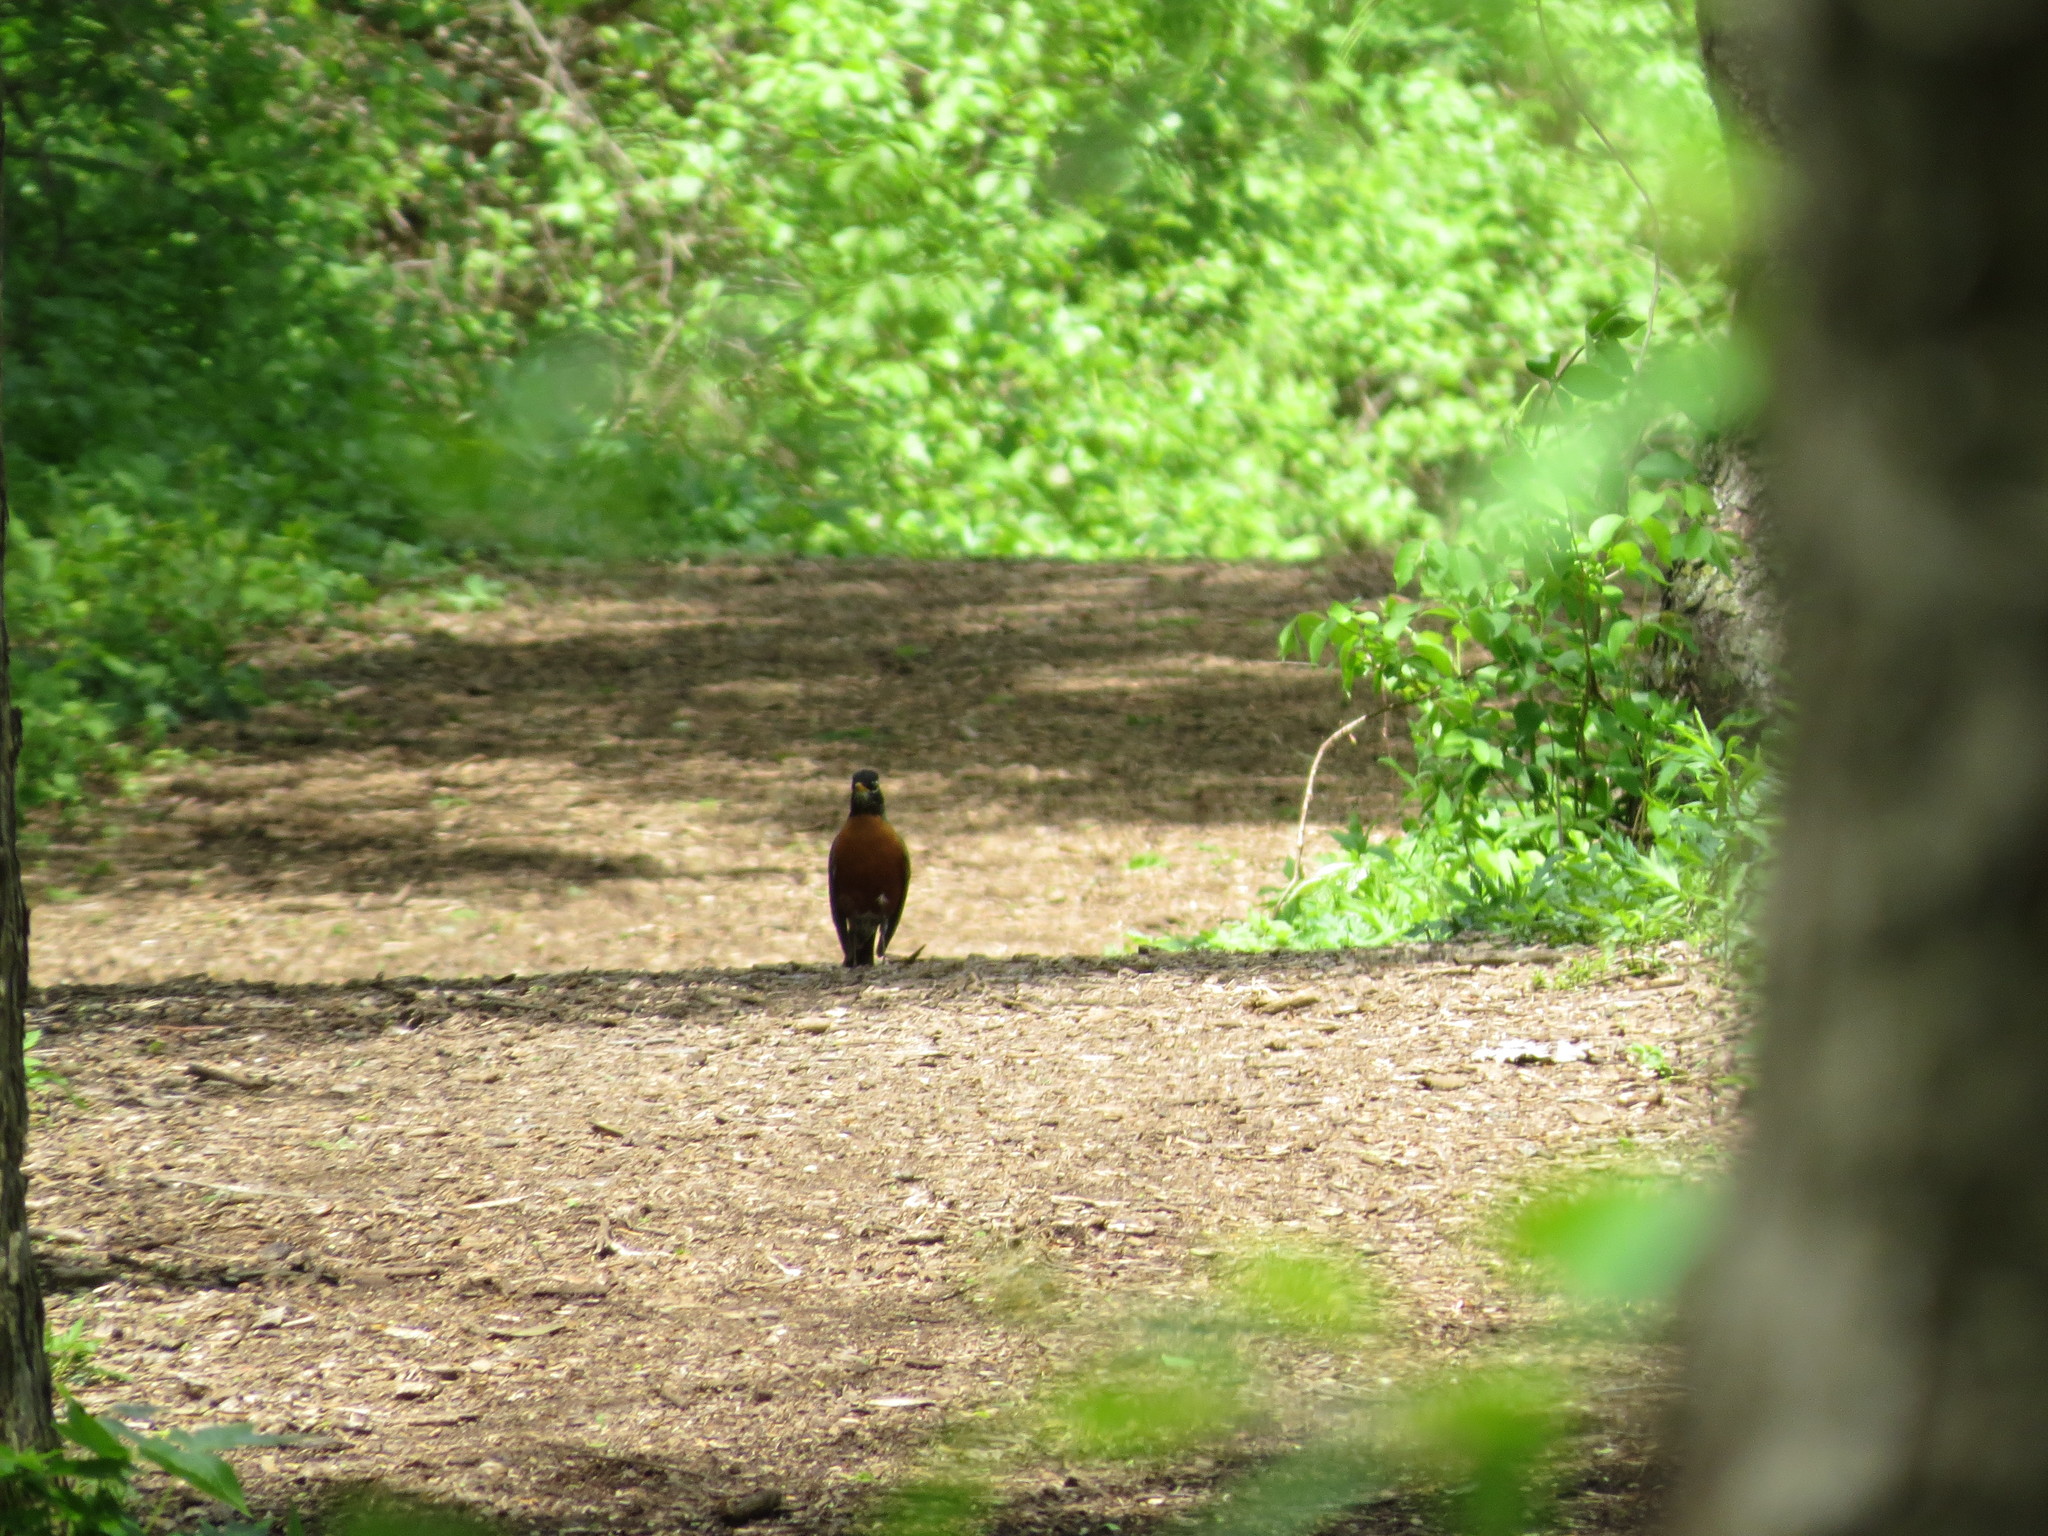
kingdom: Animalia
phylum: Chordata
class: Aves
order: Passeriformes
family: Turdidae
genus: Turdus
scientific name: Turdus migratorius
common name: American robin
